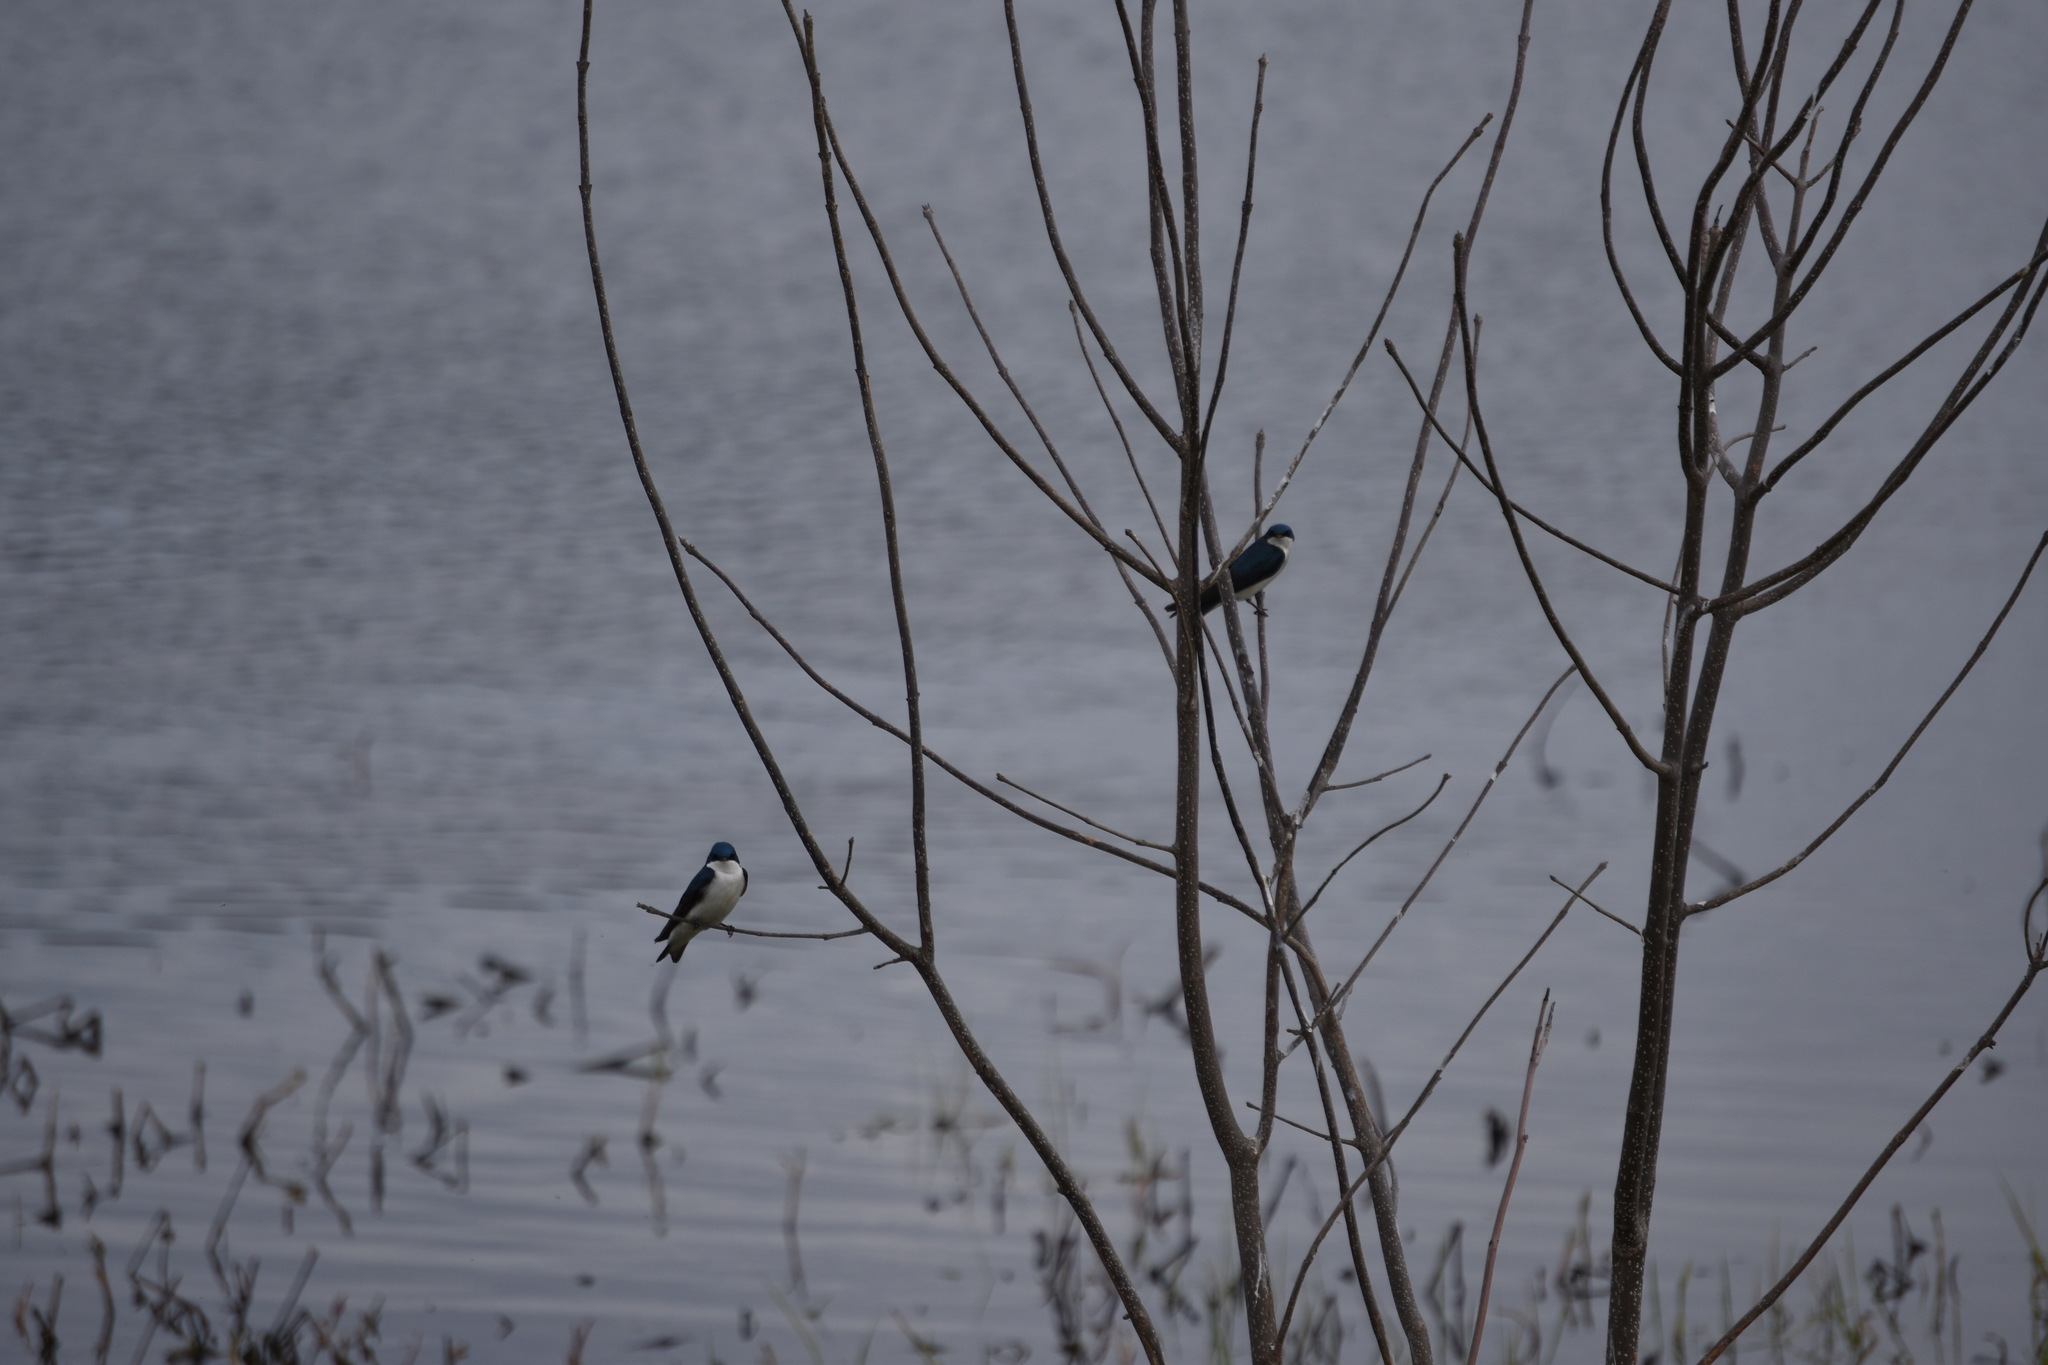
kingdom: Animalia
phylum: Chordata
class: Aves
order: Passeriformes
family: Hirundinidae
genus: Tachycineta
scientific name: Tachycineta bicolor
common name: Tree swallow
